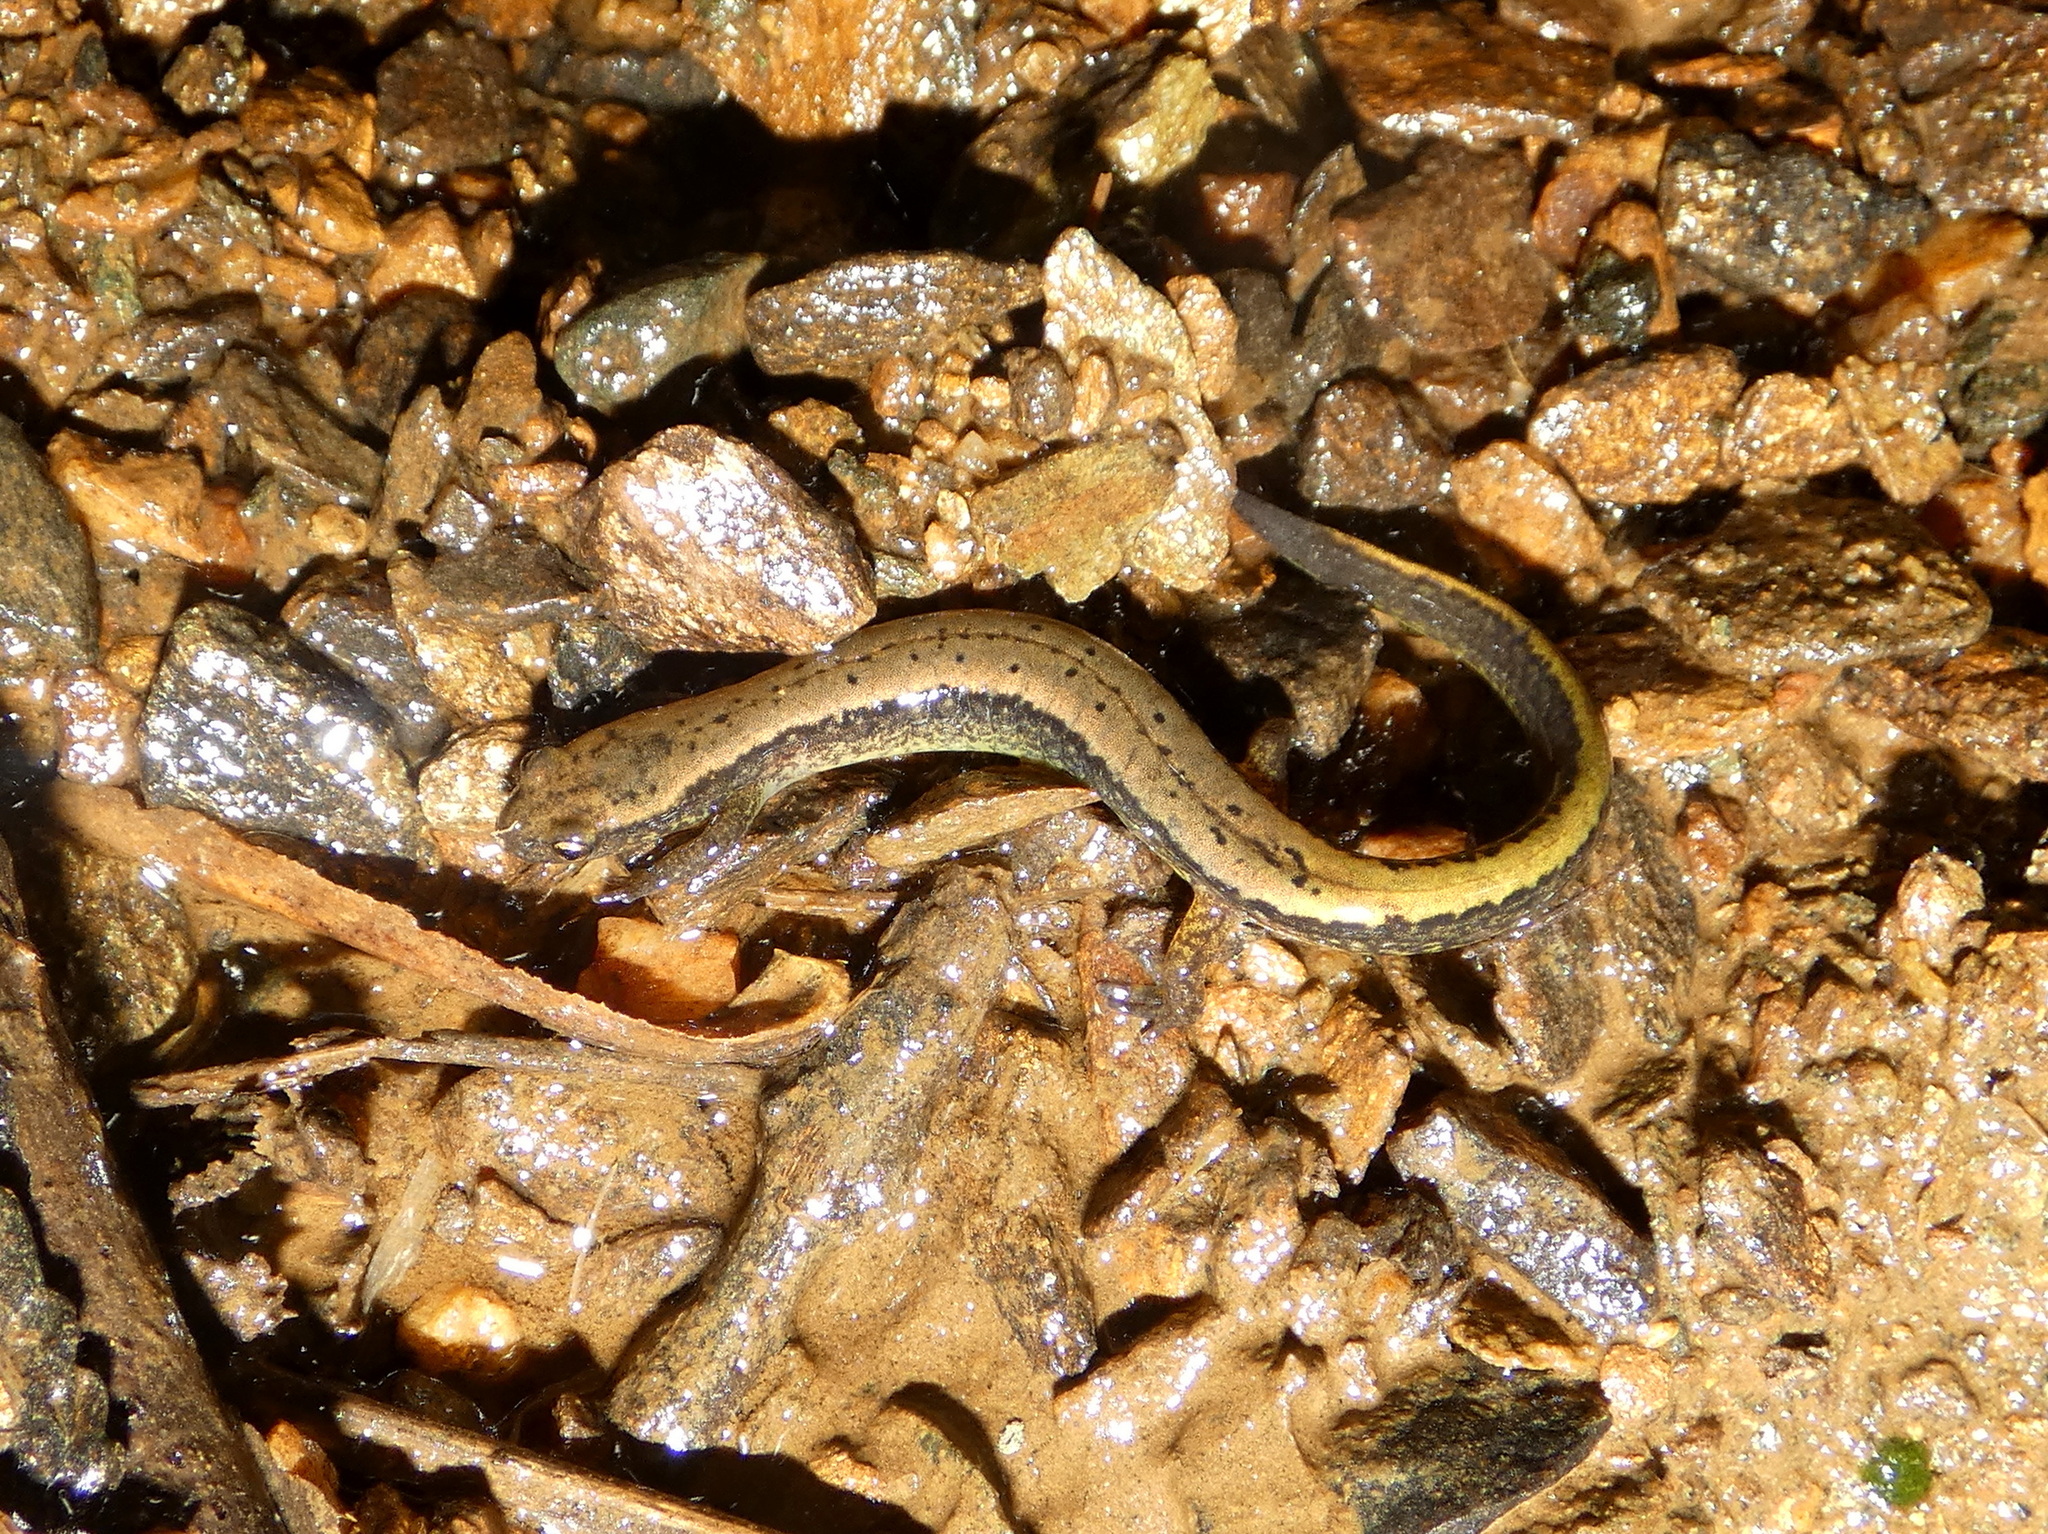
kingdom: Animalia
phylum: Chordata
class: Amphibia
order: Caudata
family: Plethodontidae
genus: Eurycea
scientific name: Eurycea bislineata
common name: Northern two-lined salamander
